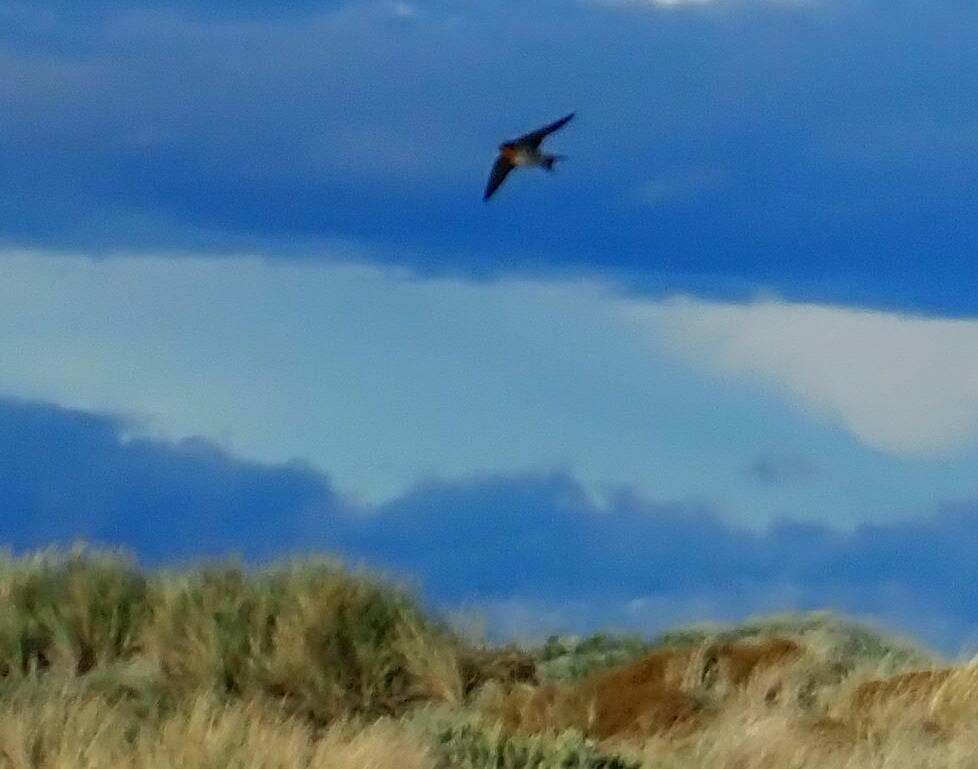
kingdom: Animalia
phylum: Chordata
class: Aves
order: Passeriformes
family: Hirundinidae
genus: Hirundo
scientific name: Hirundo neoxena
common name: Welcome swallow
